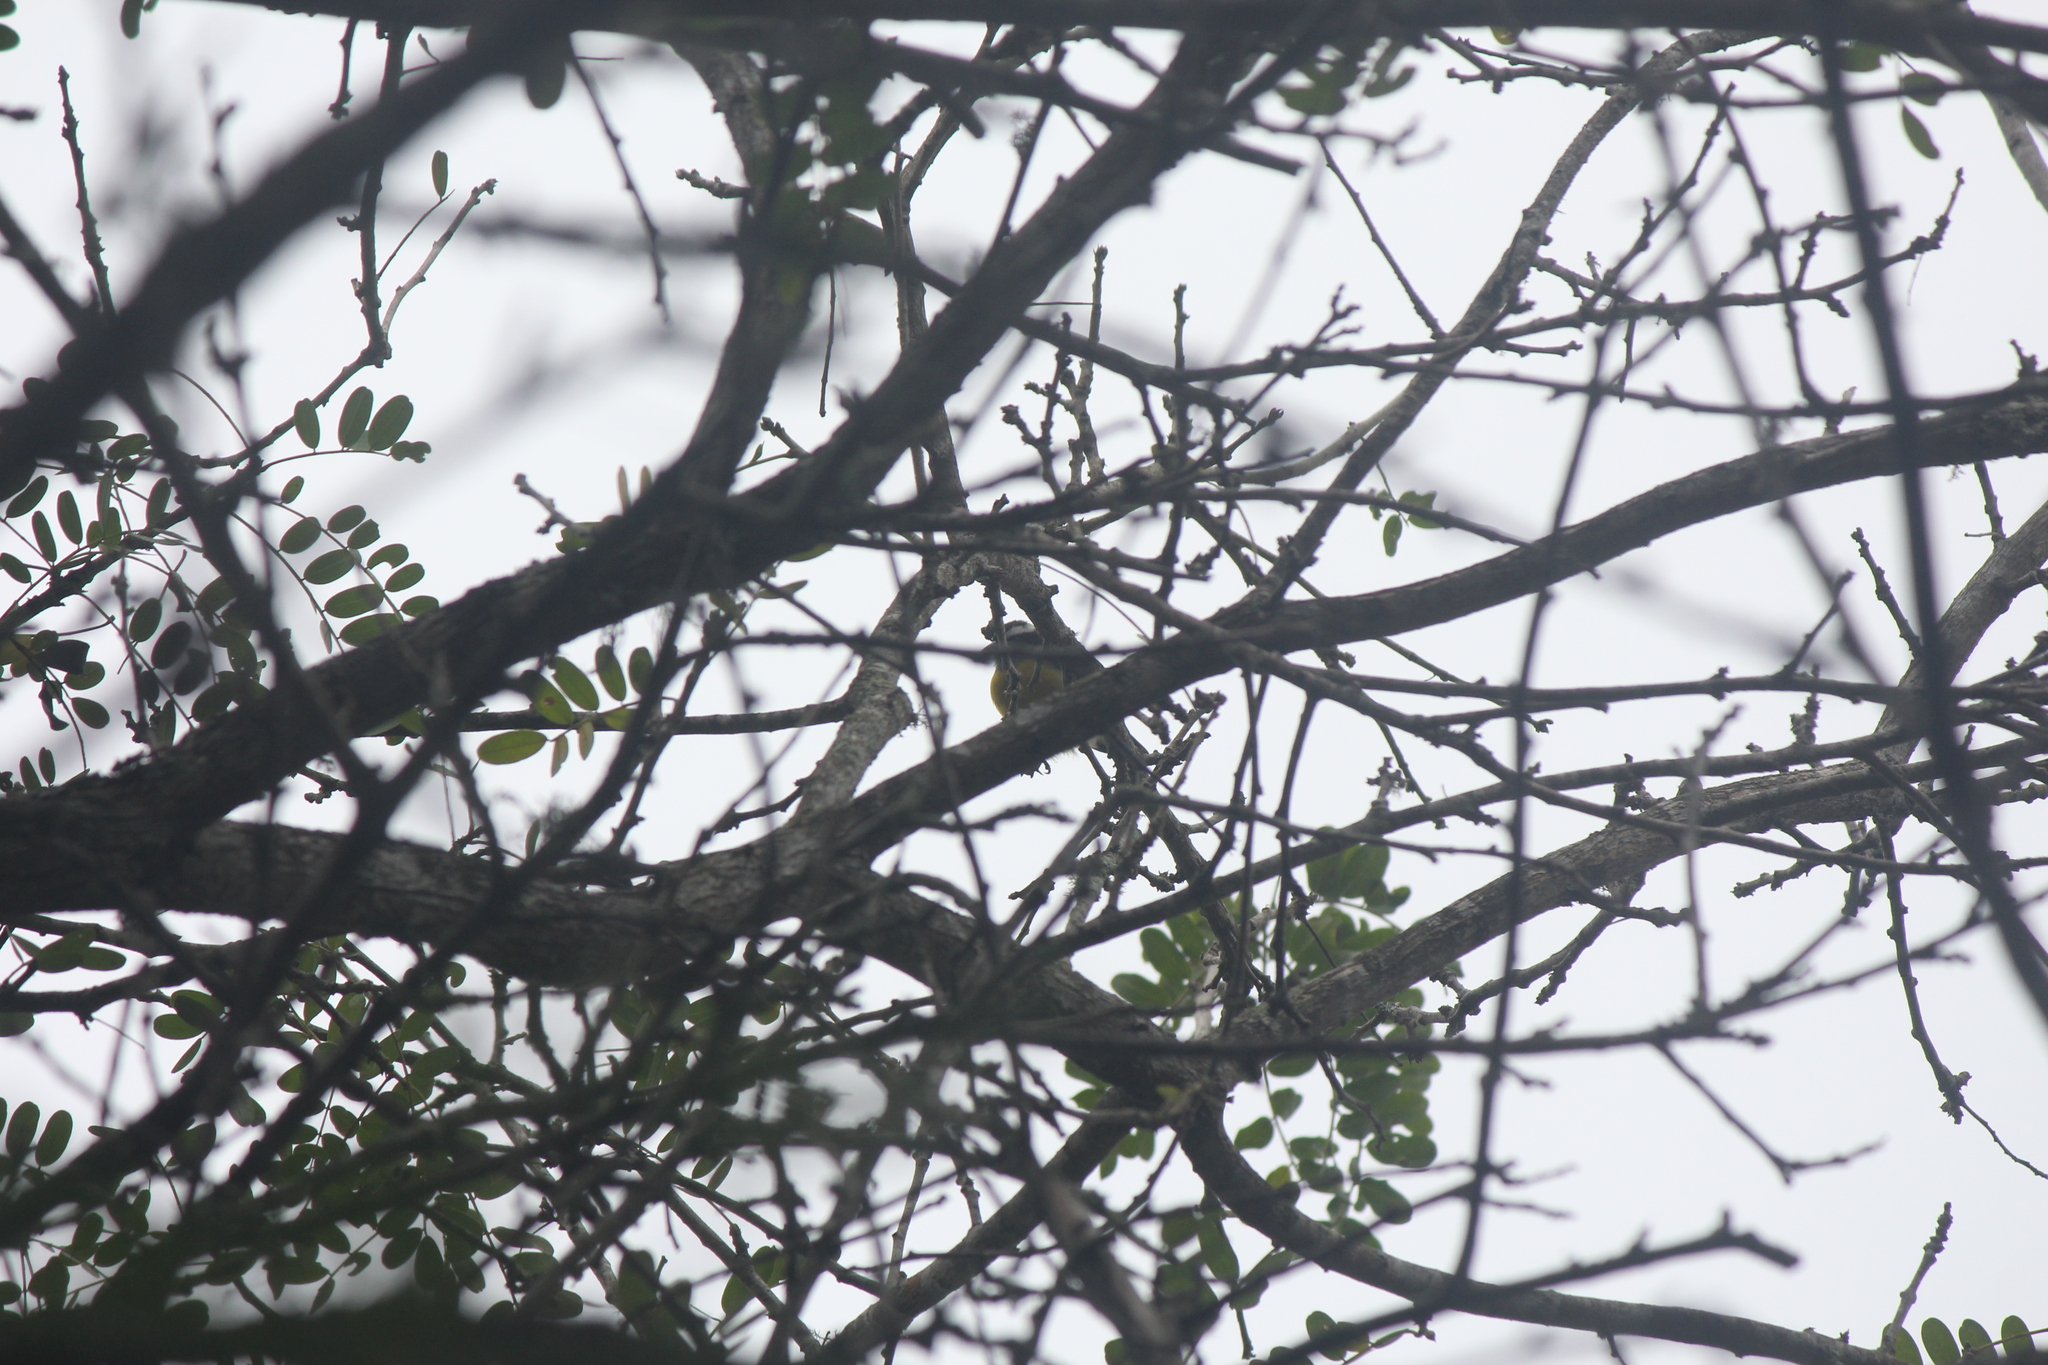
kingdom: Animalia
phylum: Chordata
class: Aves
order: Passeriformes
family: Thraupidae
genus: Coereba
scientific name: Coereba flaveola
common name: Bananaquit
